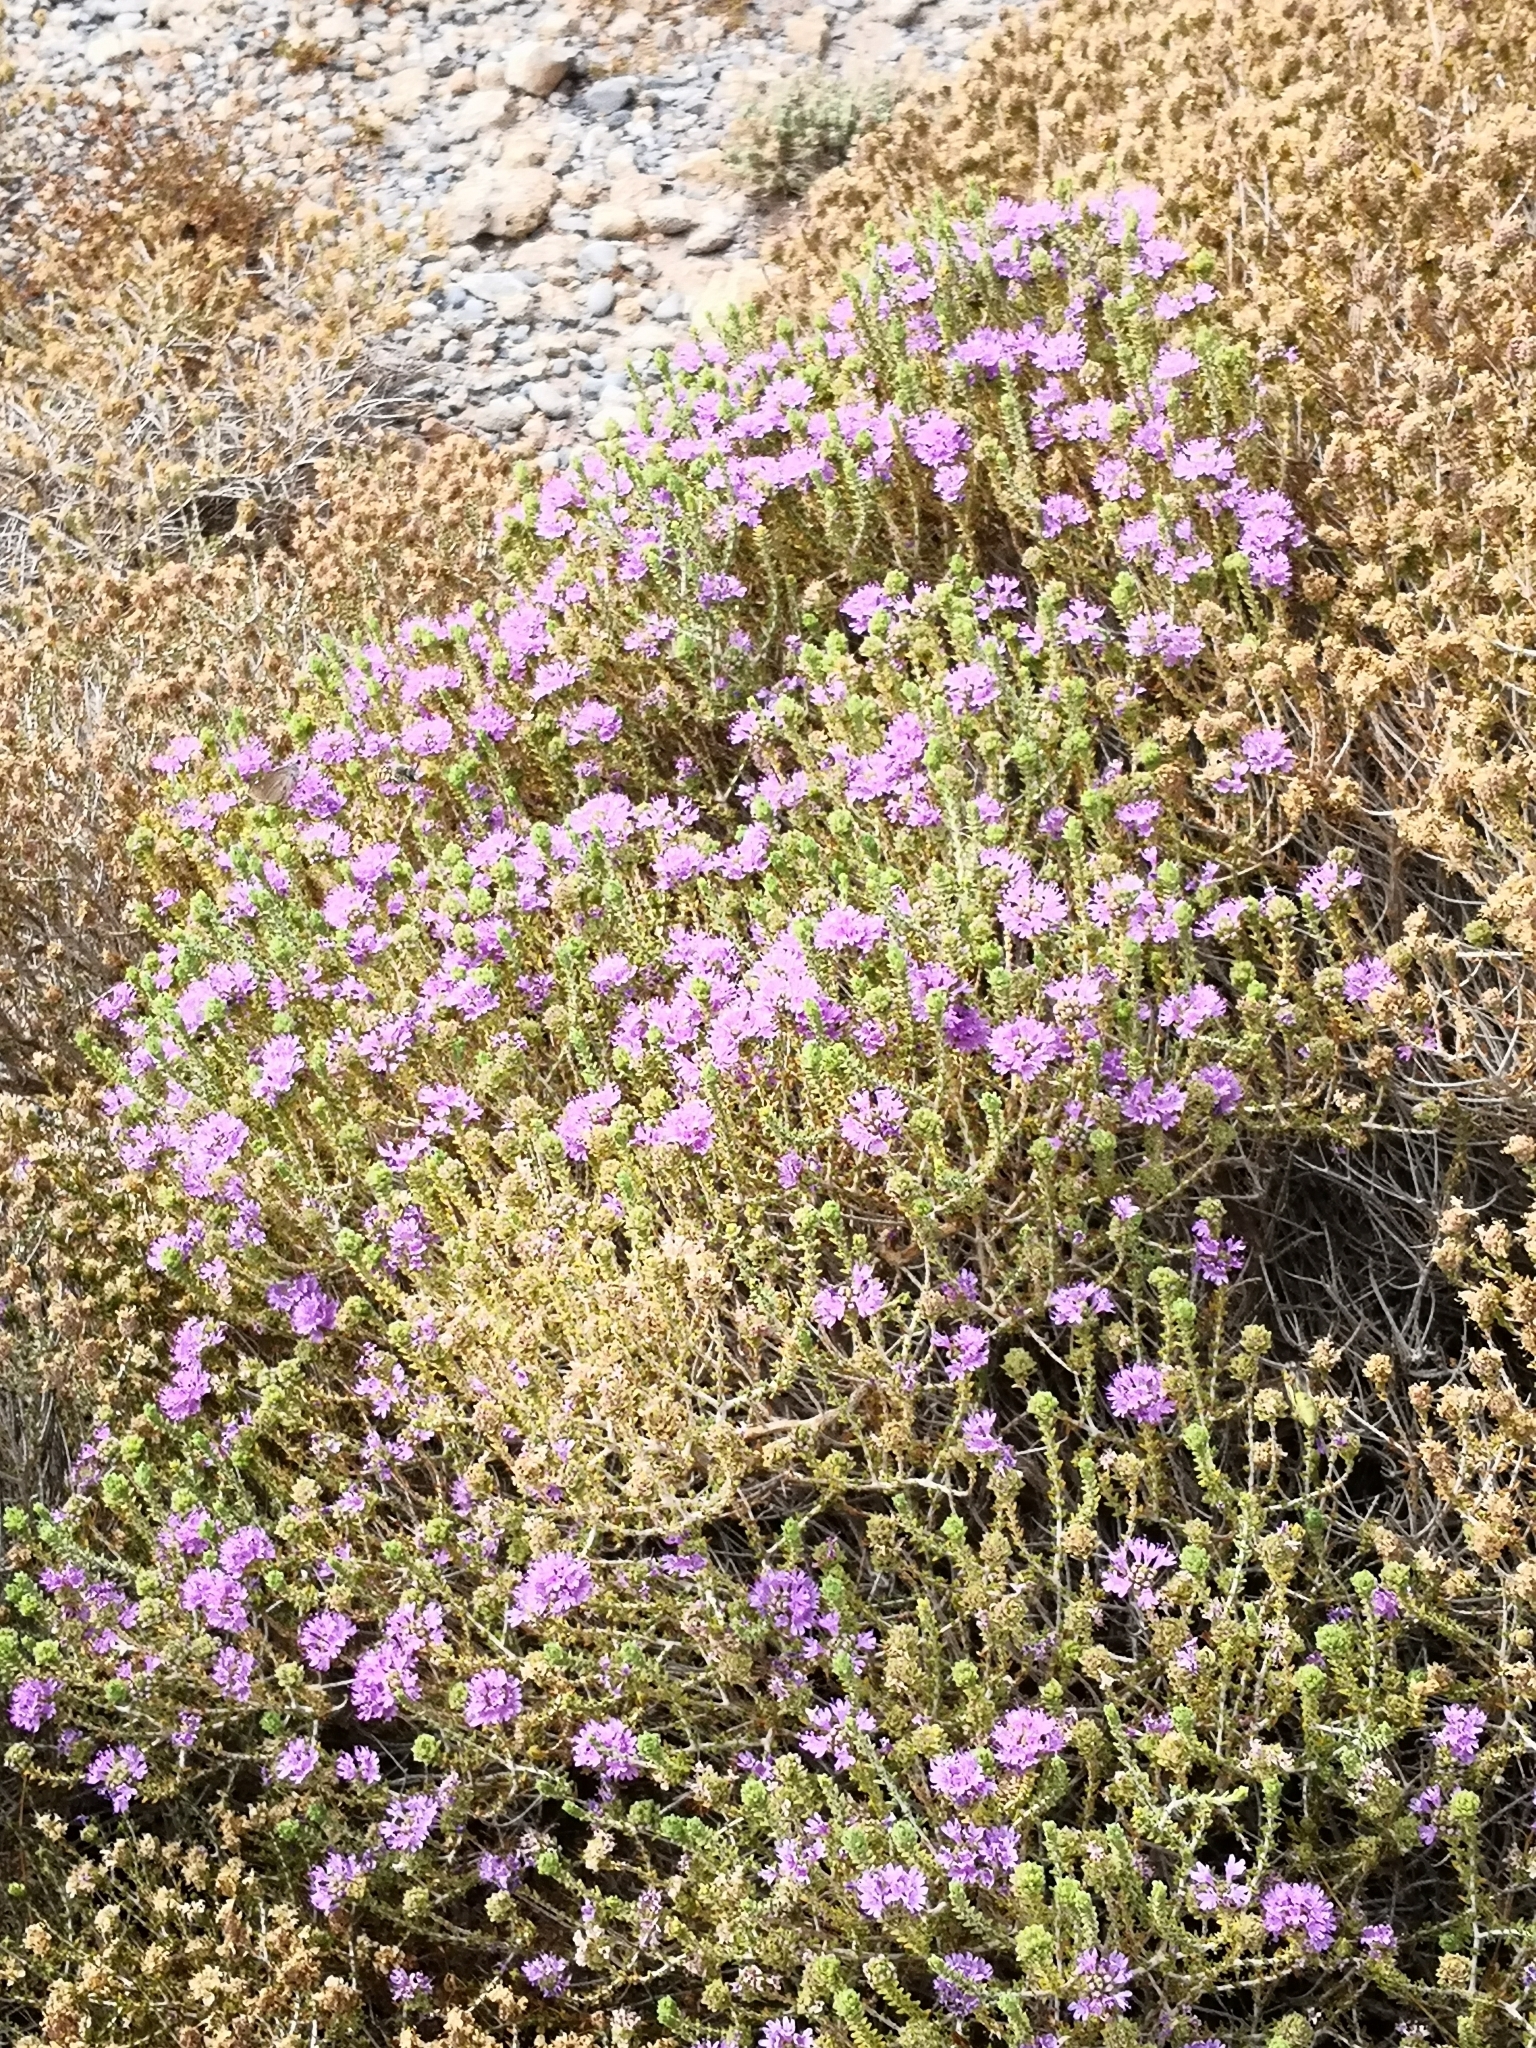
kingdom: Plantae
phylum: Tracheophyta
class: Magnoliopsida
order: Lamiales
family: Lamiaceae
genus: Thymbra
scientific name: Thymbra capitata
